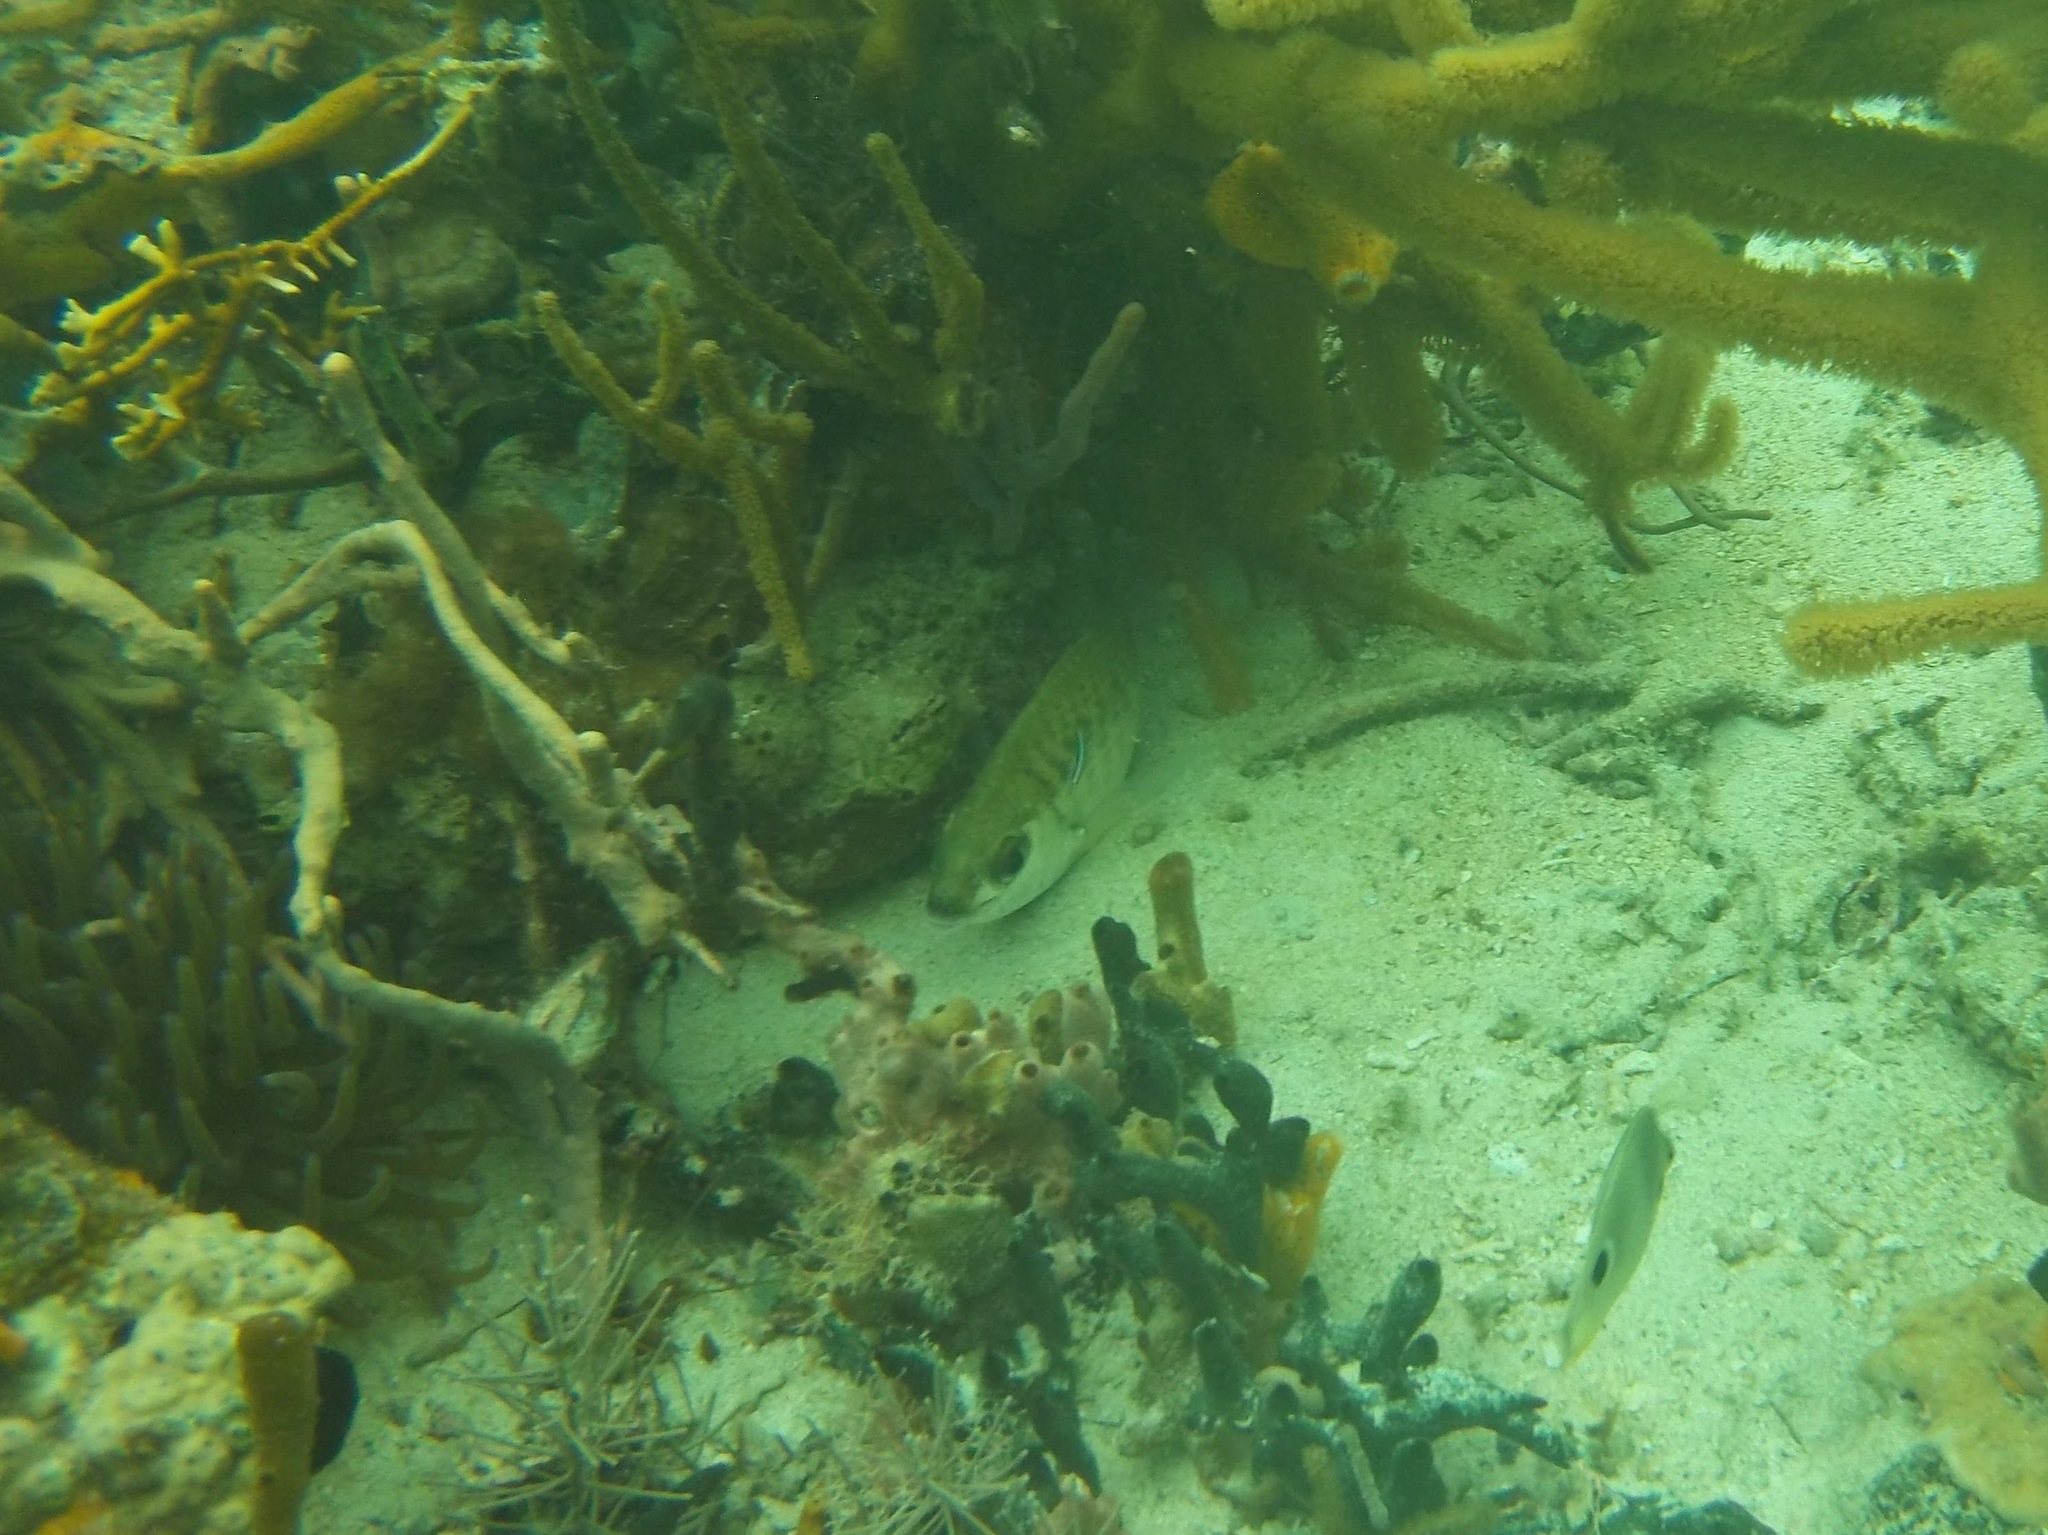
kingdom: Animalia
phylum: Chordata
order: Perciformes
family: Gerreidae
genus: Gerres
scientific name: Gerres cinereus
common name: Hedow
